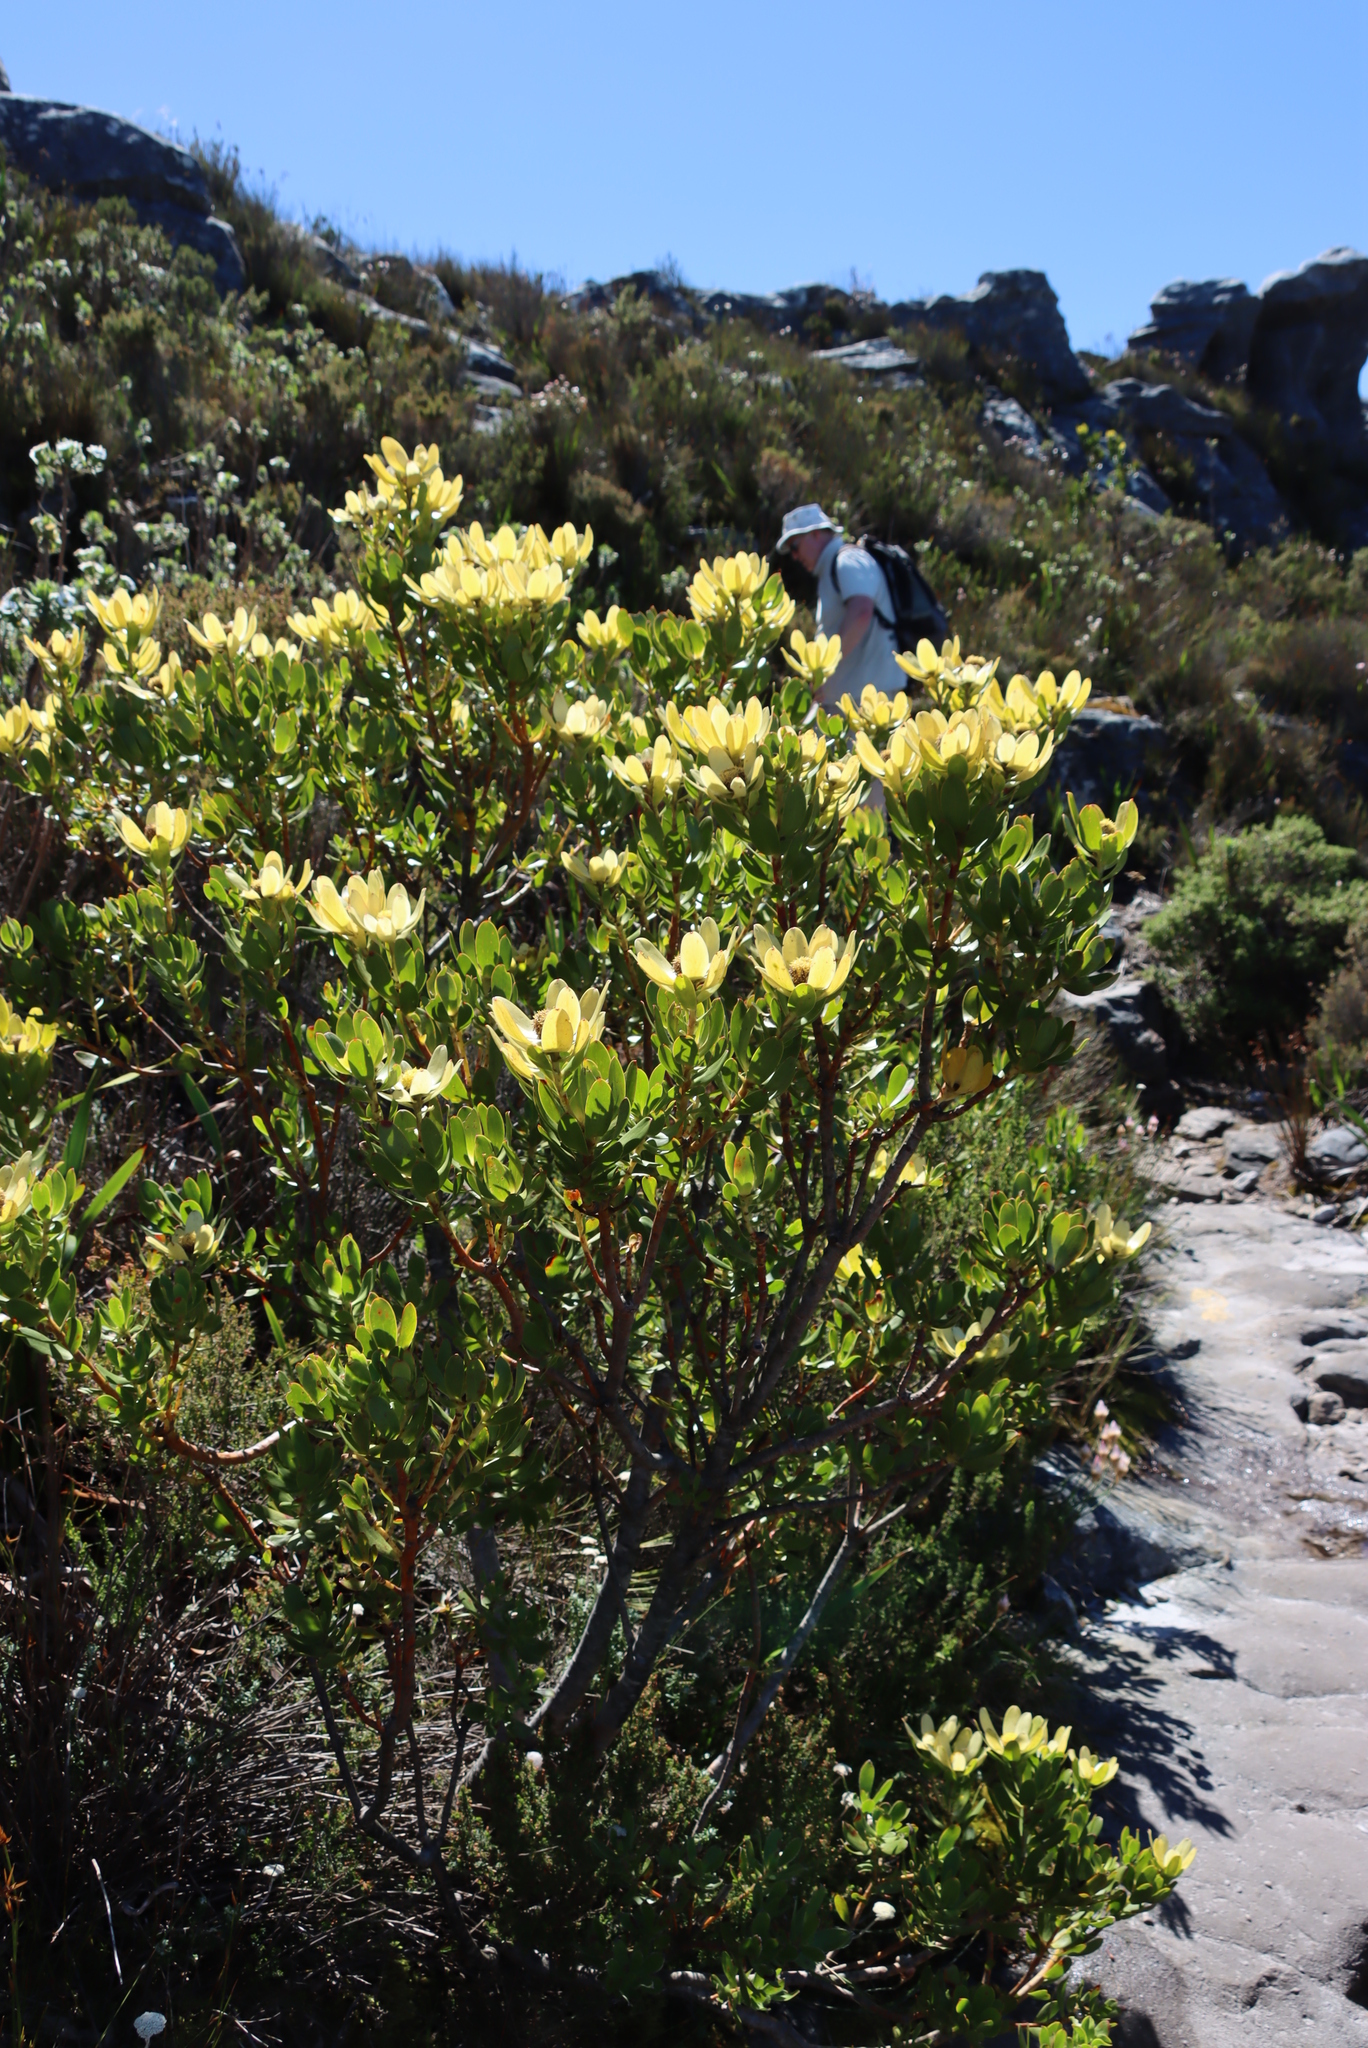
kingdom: Plantae
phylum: Tracheophyta
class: Magnoliopsida
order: Proteales
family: Proteaceae
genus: Leucadendron
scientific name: Leucadendron strobilinum
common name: Mountain rose
